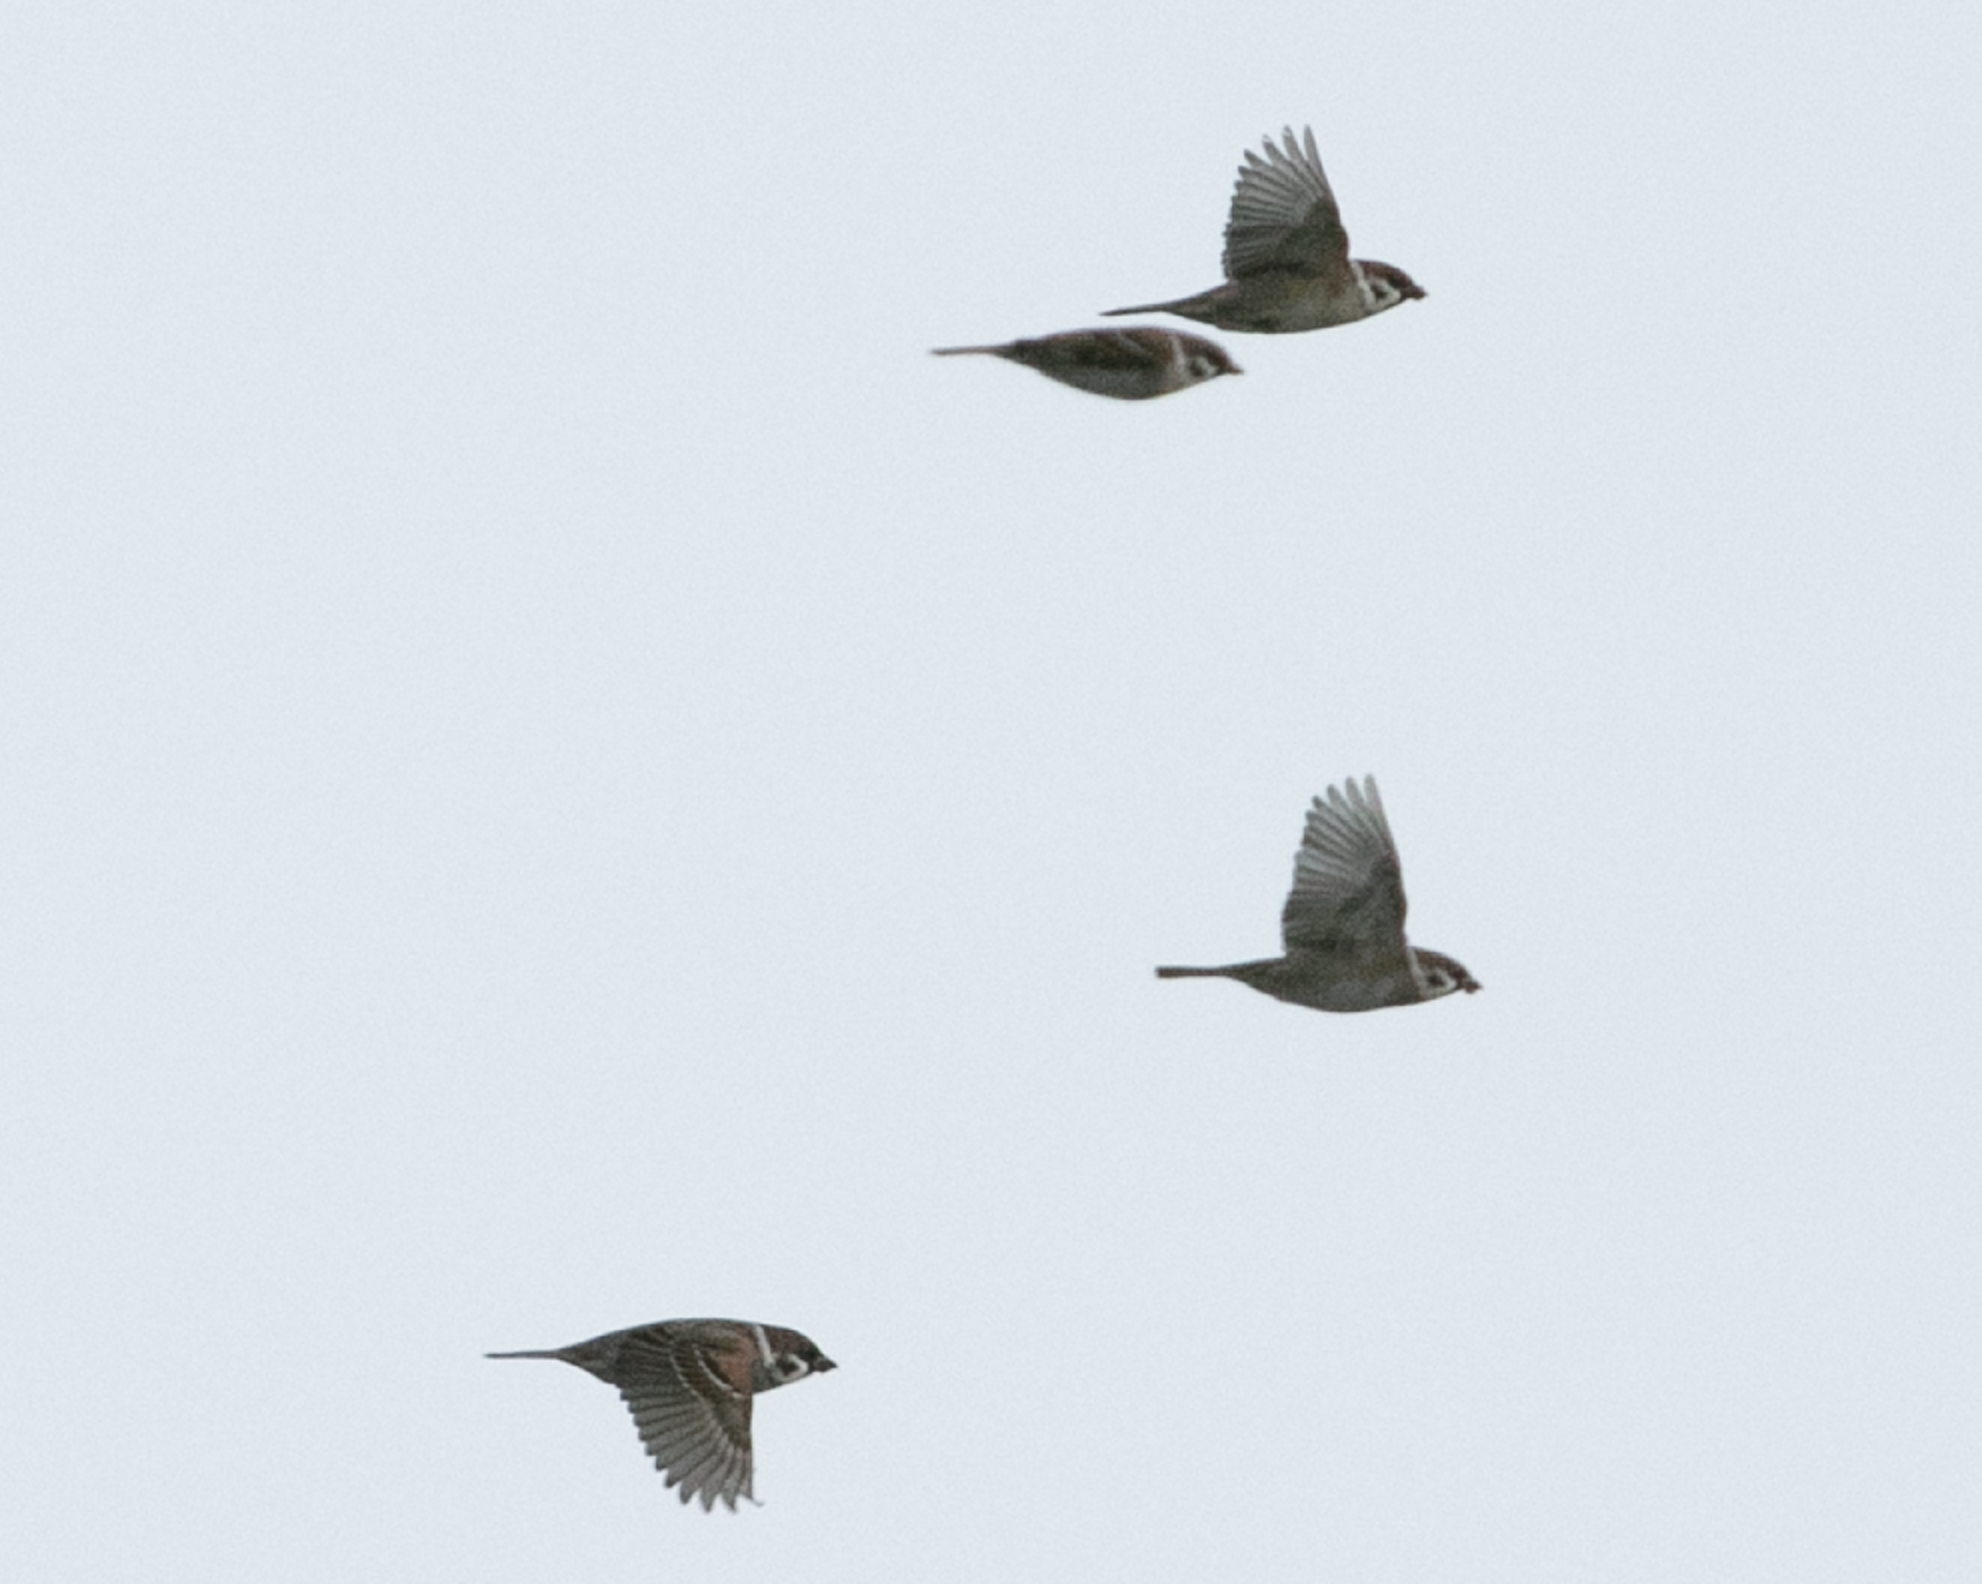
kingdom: Animalia
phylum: Chordata
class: Aves
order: Passeriformes
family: Passeridae
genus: Passer
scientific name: Passer montanus
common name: Eurasian tree sparrow
